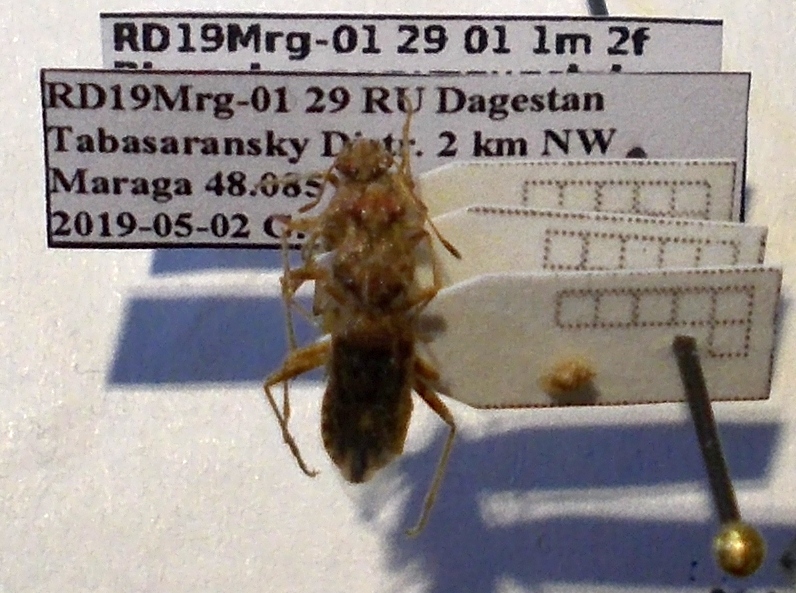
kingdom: Animalia
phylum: Arthropoda
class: Insecta
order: Hemiptera
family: Rhopalidae
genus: Rhopalus
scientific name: Rhopalus parumpunctatus
